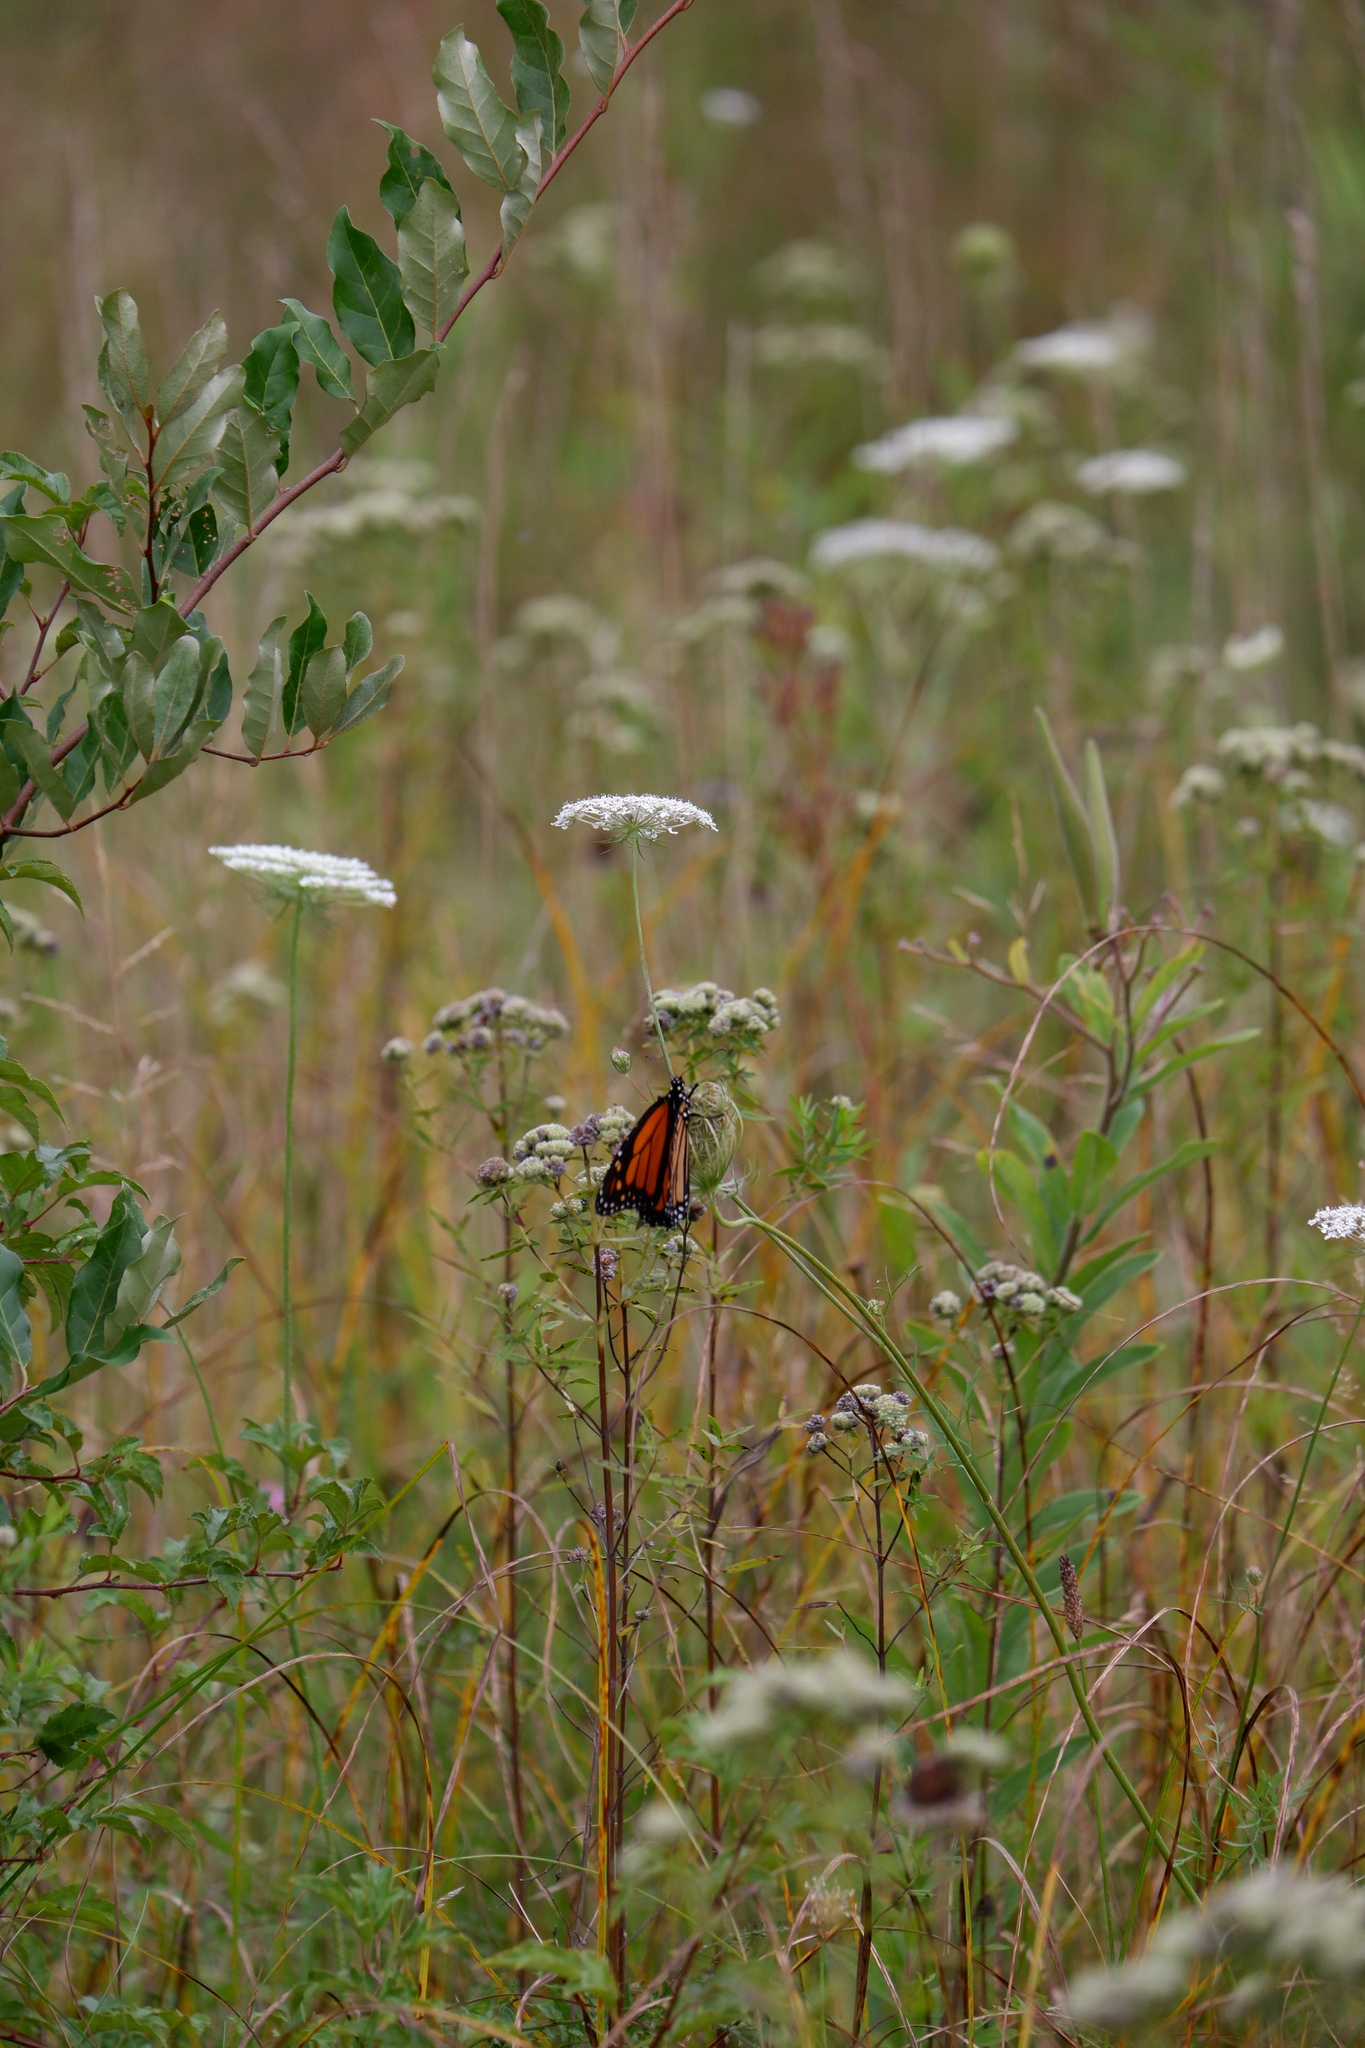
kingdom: Animalia
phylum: Arthropoda
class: Insecta
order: Lepidoptera
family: Nymphalidae
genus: Danaus
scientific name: Danaus plexippus
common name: Monarch
